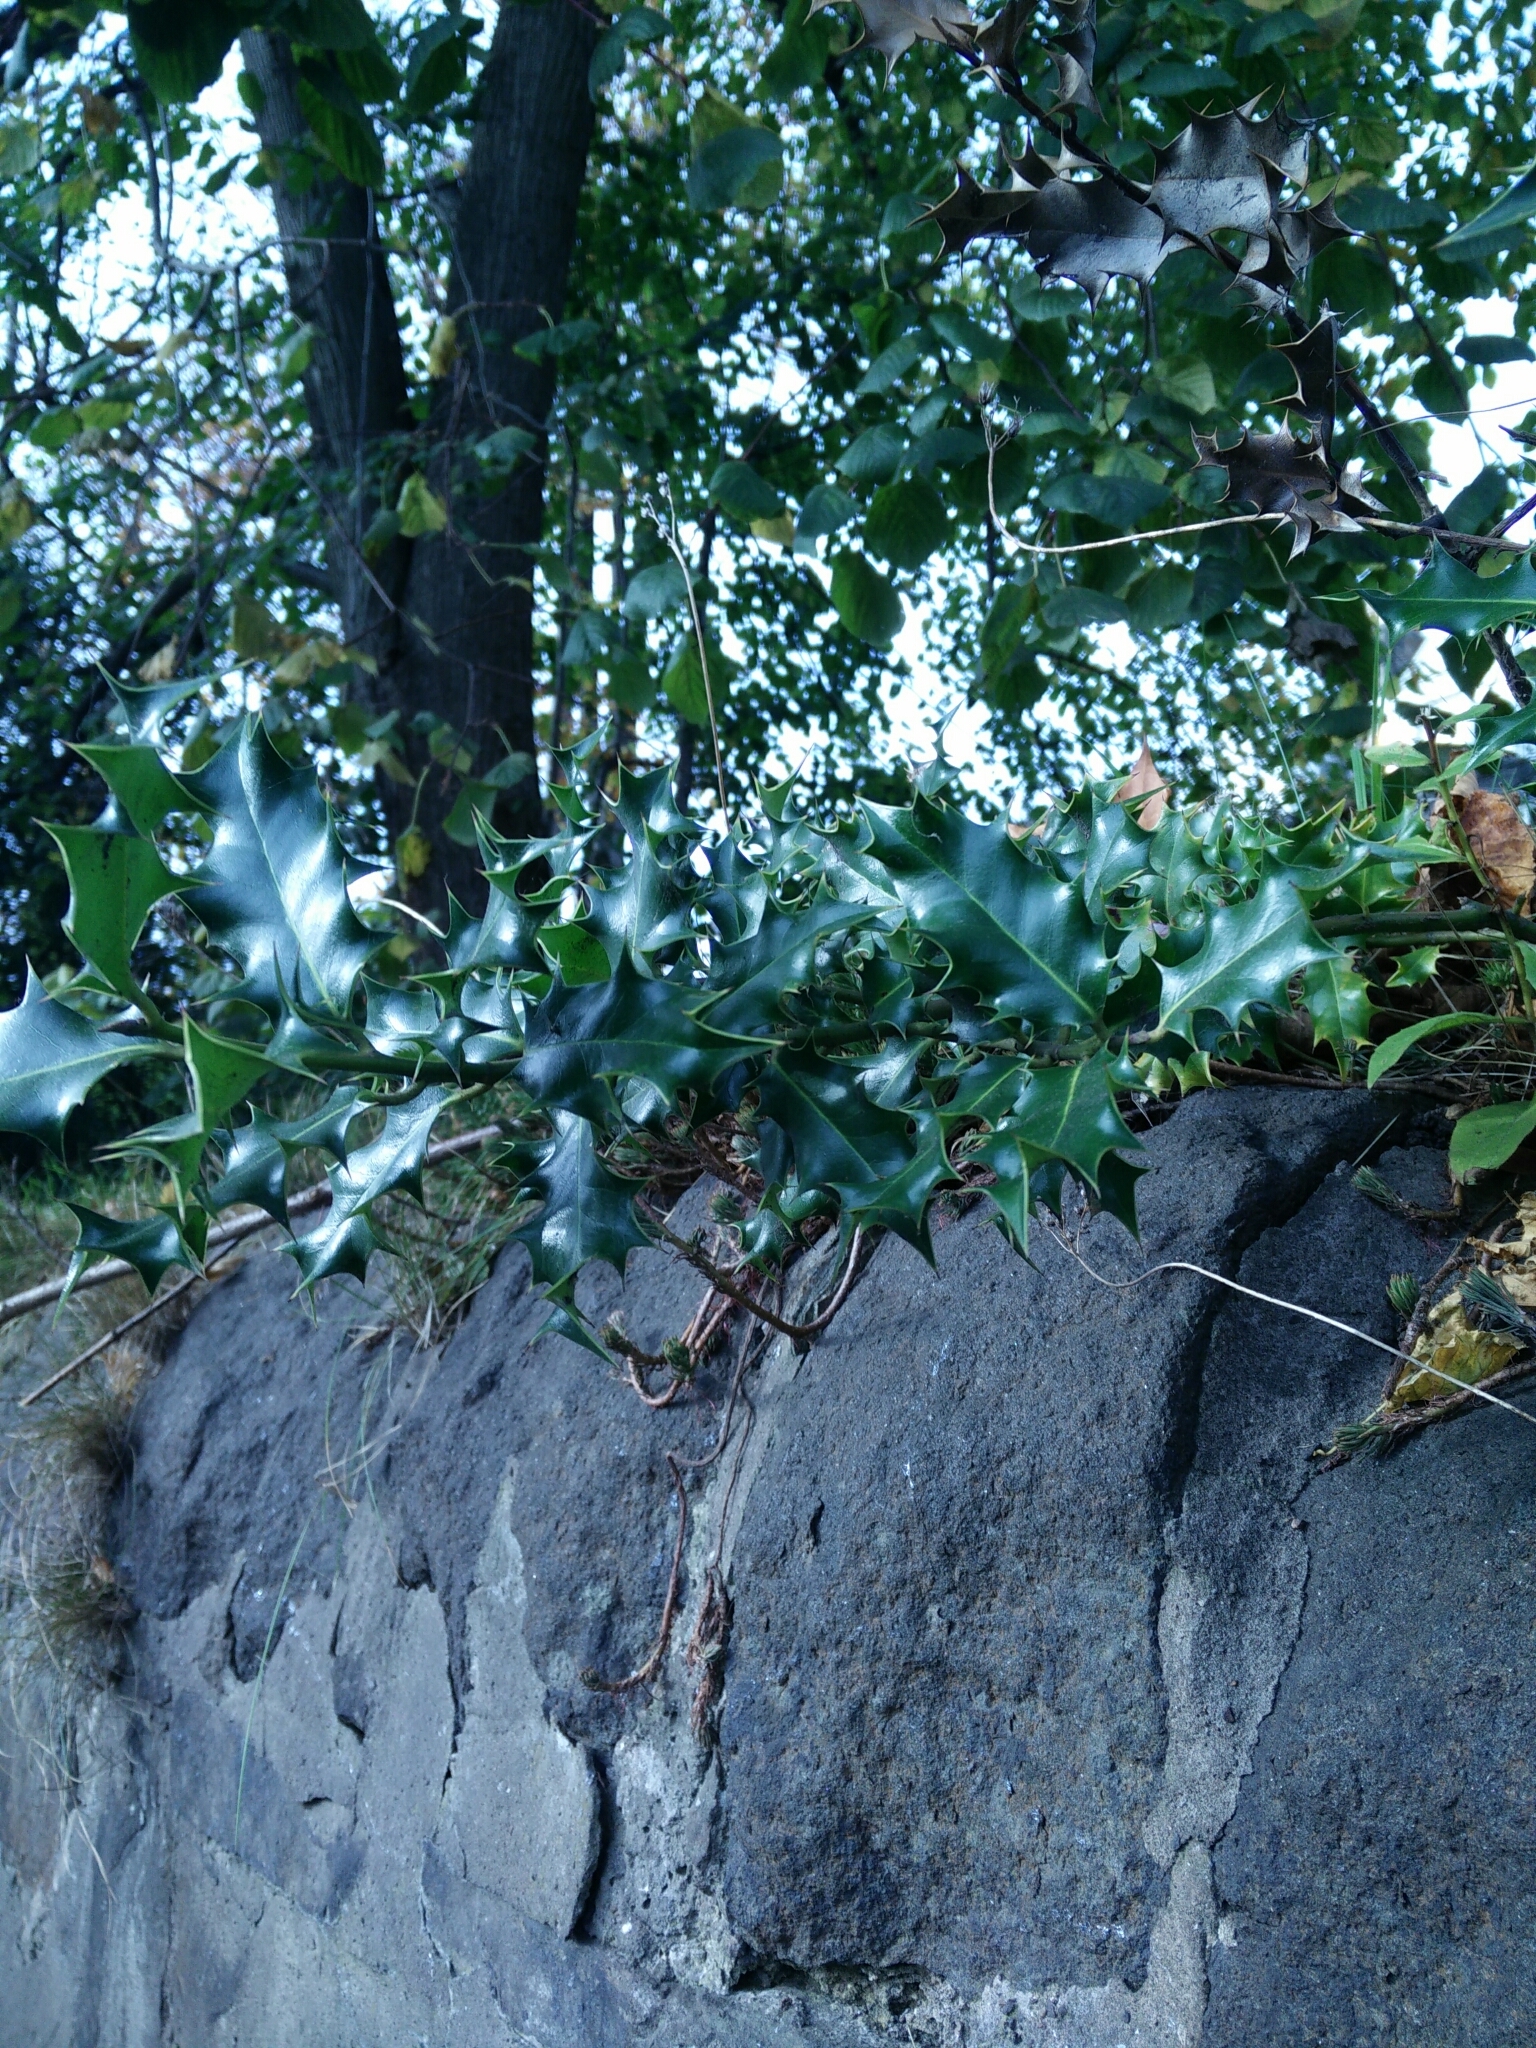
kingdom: Plantae
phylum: Tracheophyta
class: Magnoliopsida
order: Aquifoliales
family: Aquifoliaceae
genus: Ilex
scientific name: Ilex aquifolium
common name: English holly
